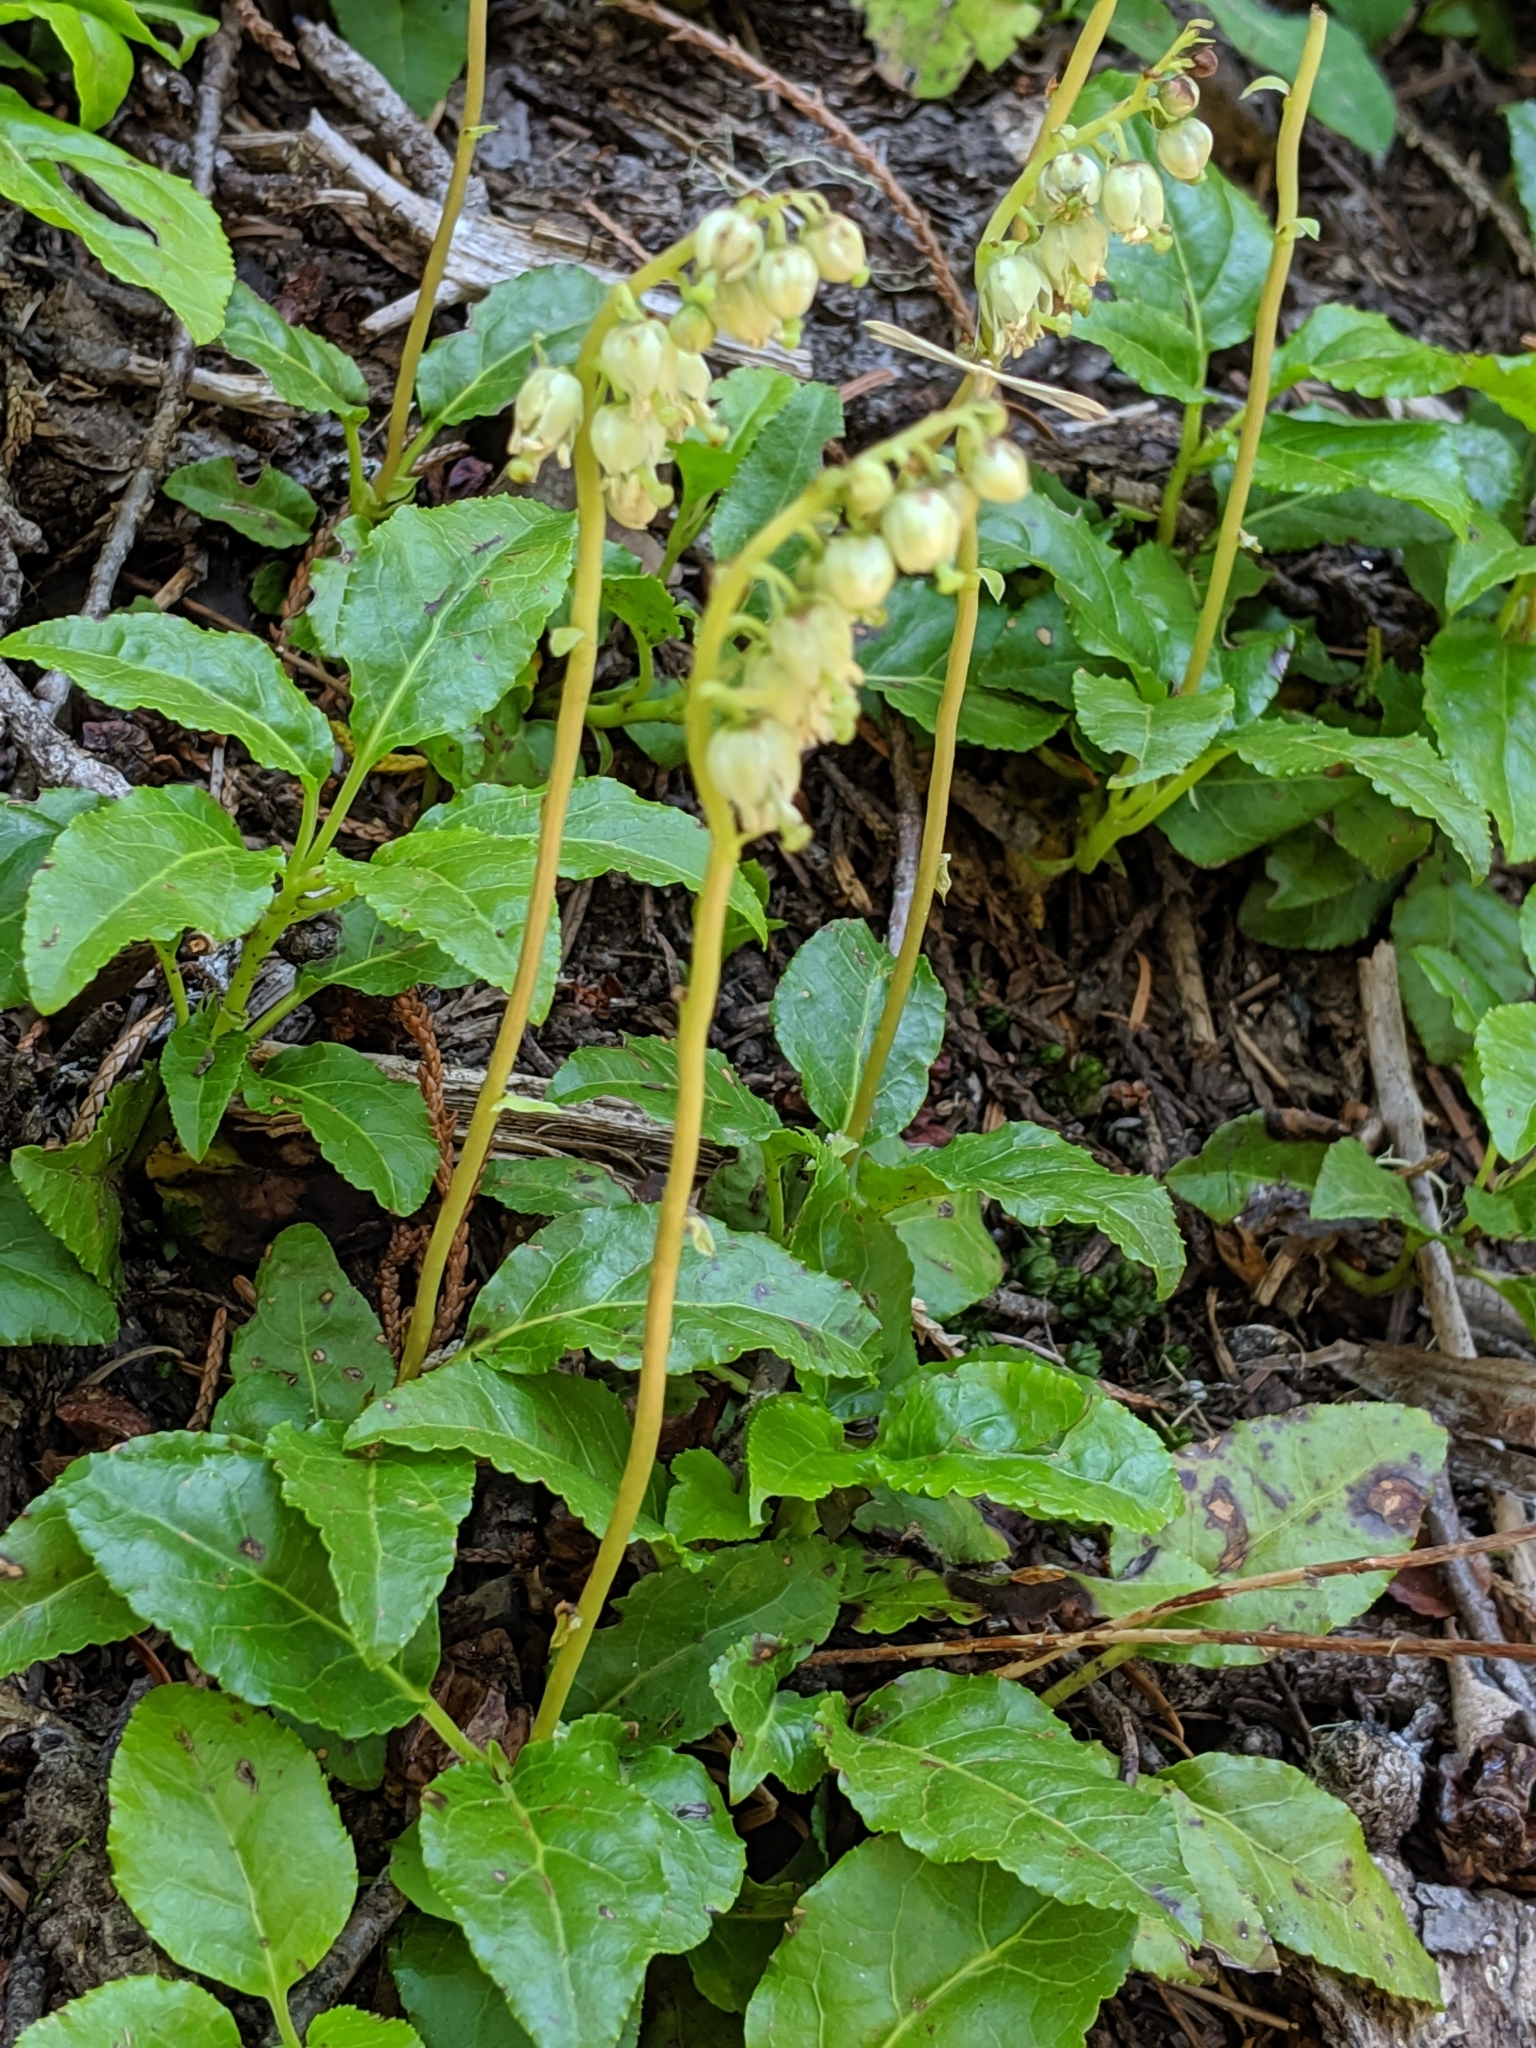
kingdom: Plantae
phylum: Tracheophyta
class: Magnoliopsida
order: Ericales
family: Ericaceae
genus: Orthilia
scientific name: Orthilia secunda
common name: One-sided orthilia
